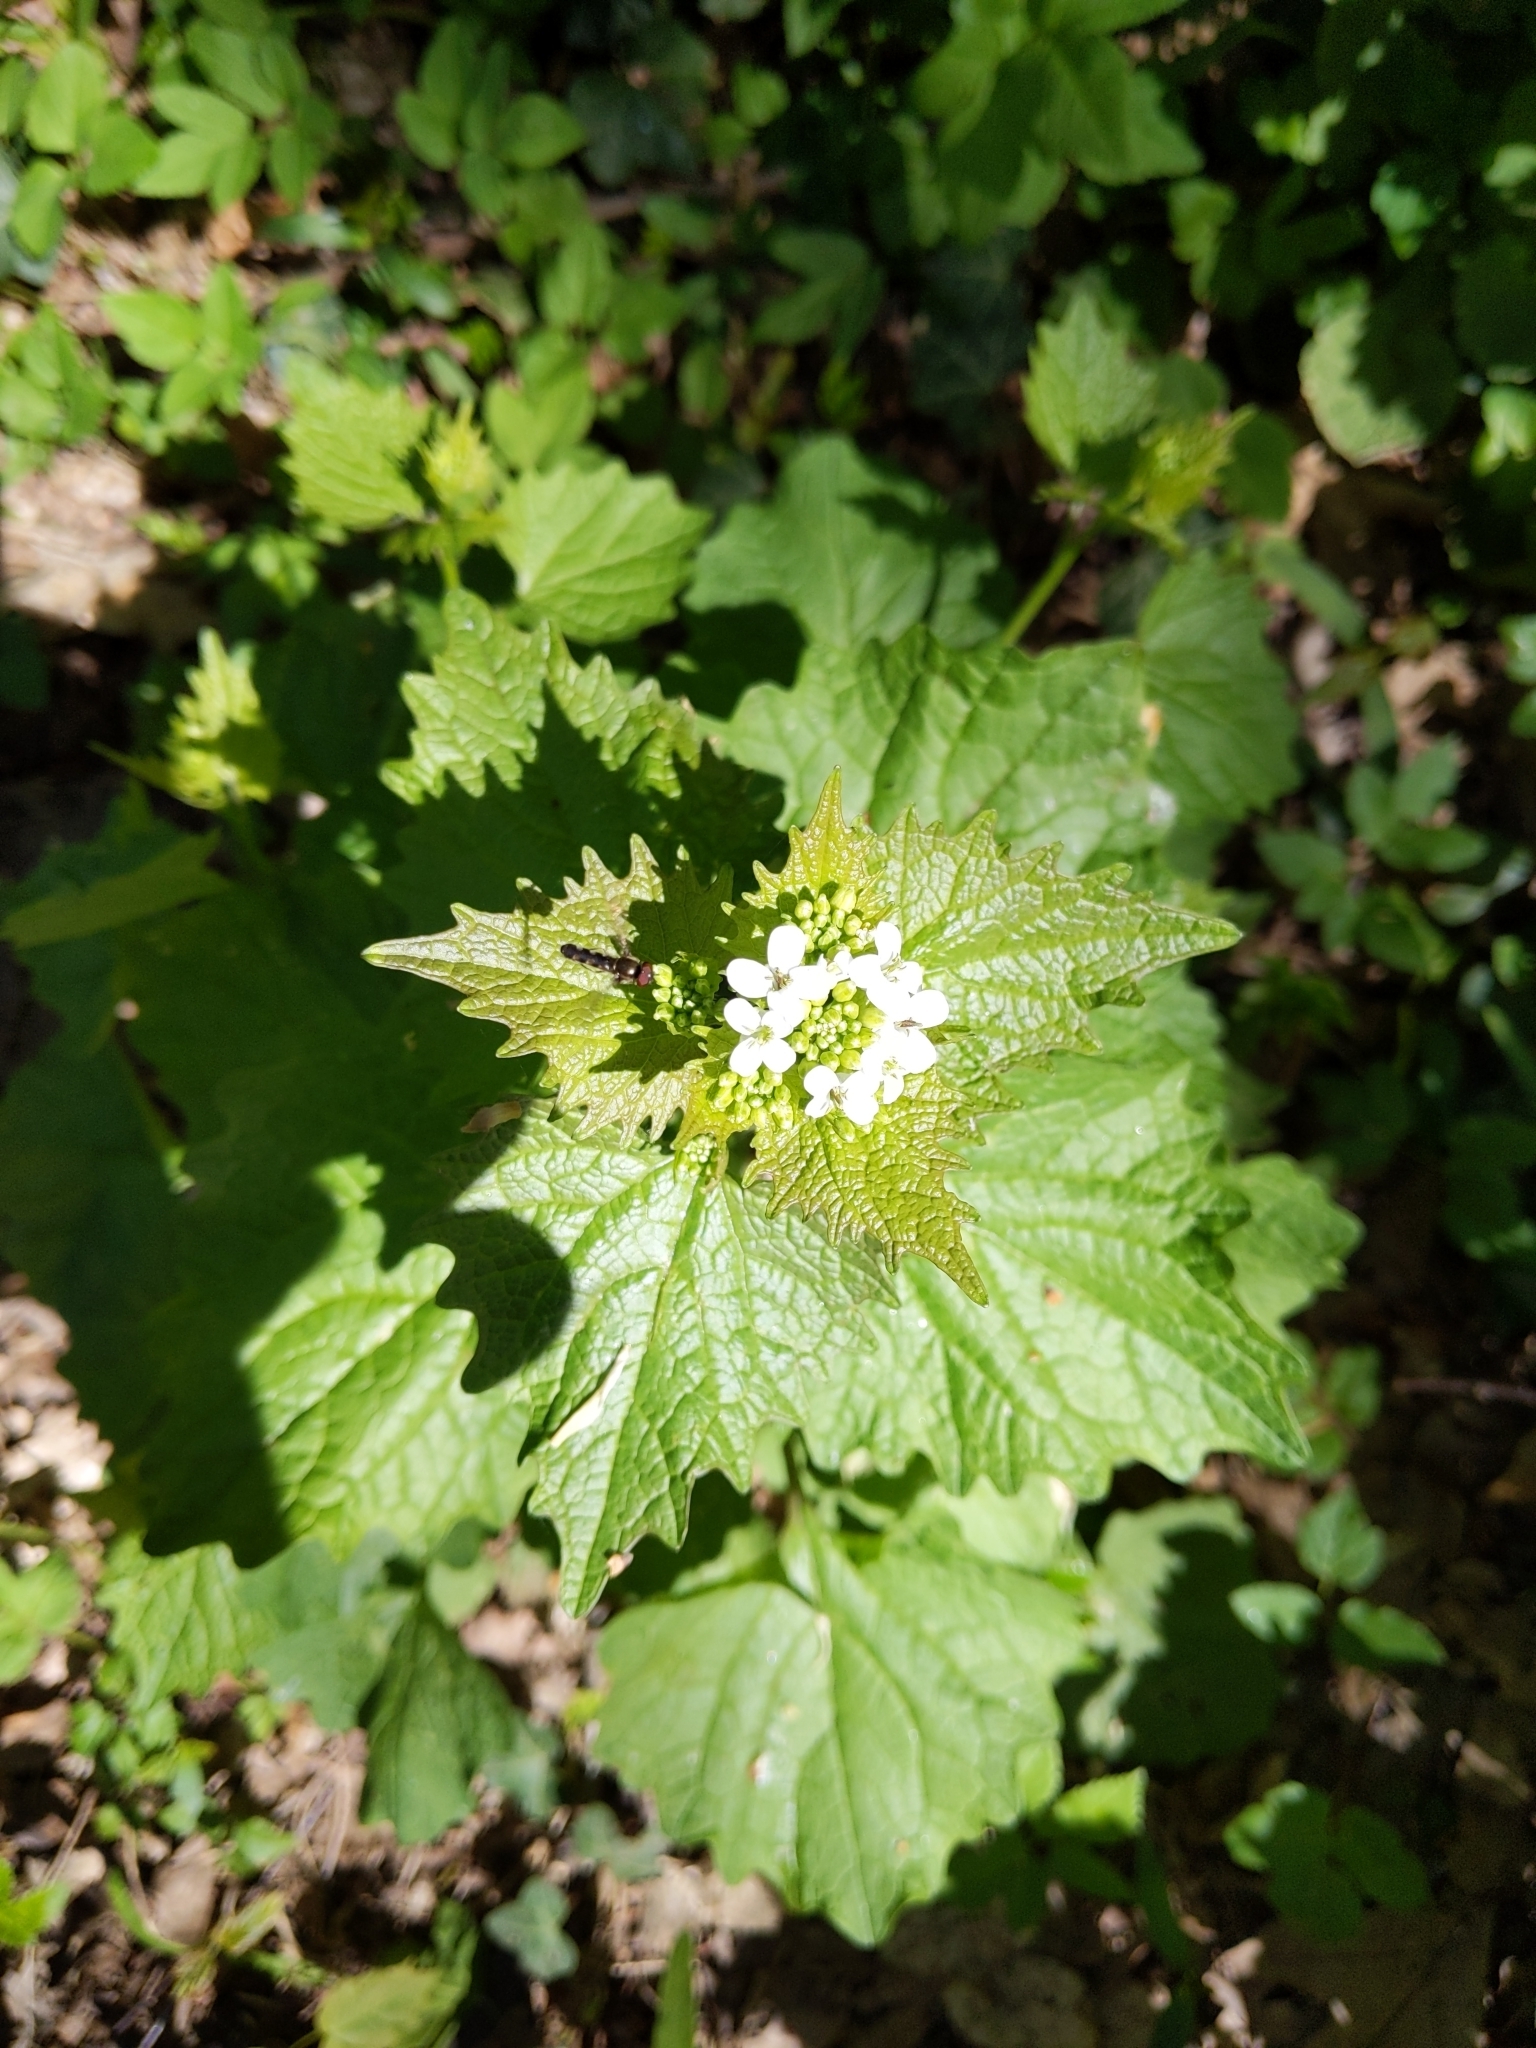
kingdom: Plantae
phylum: Tracheophyta
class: Magnoliopsida
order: Brassicales
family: Brassicaceae
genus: Alliaria
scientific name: Alliaria petiolata
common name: Garlic mustard
